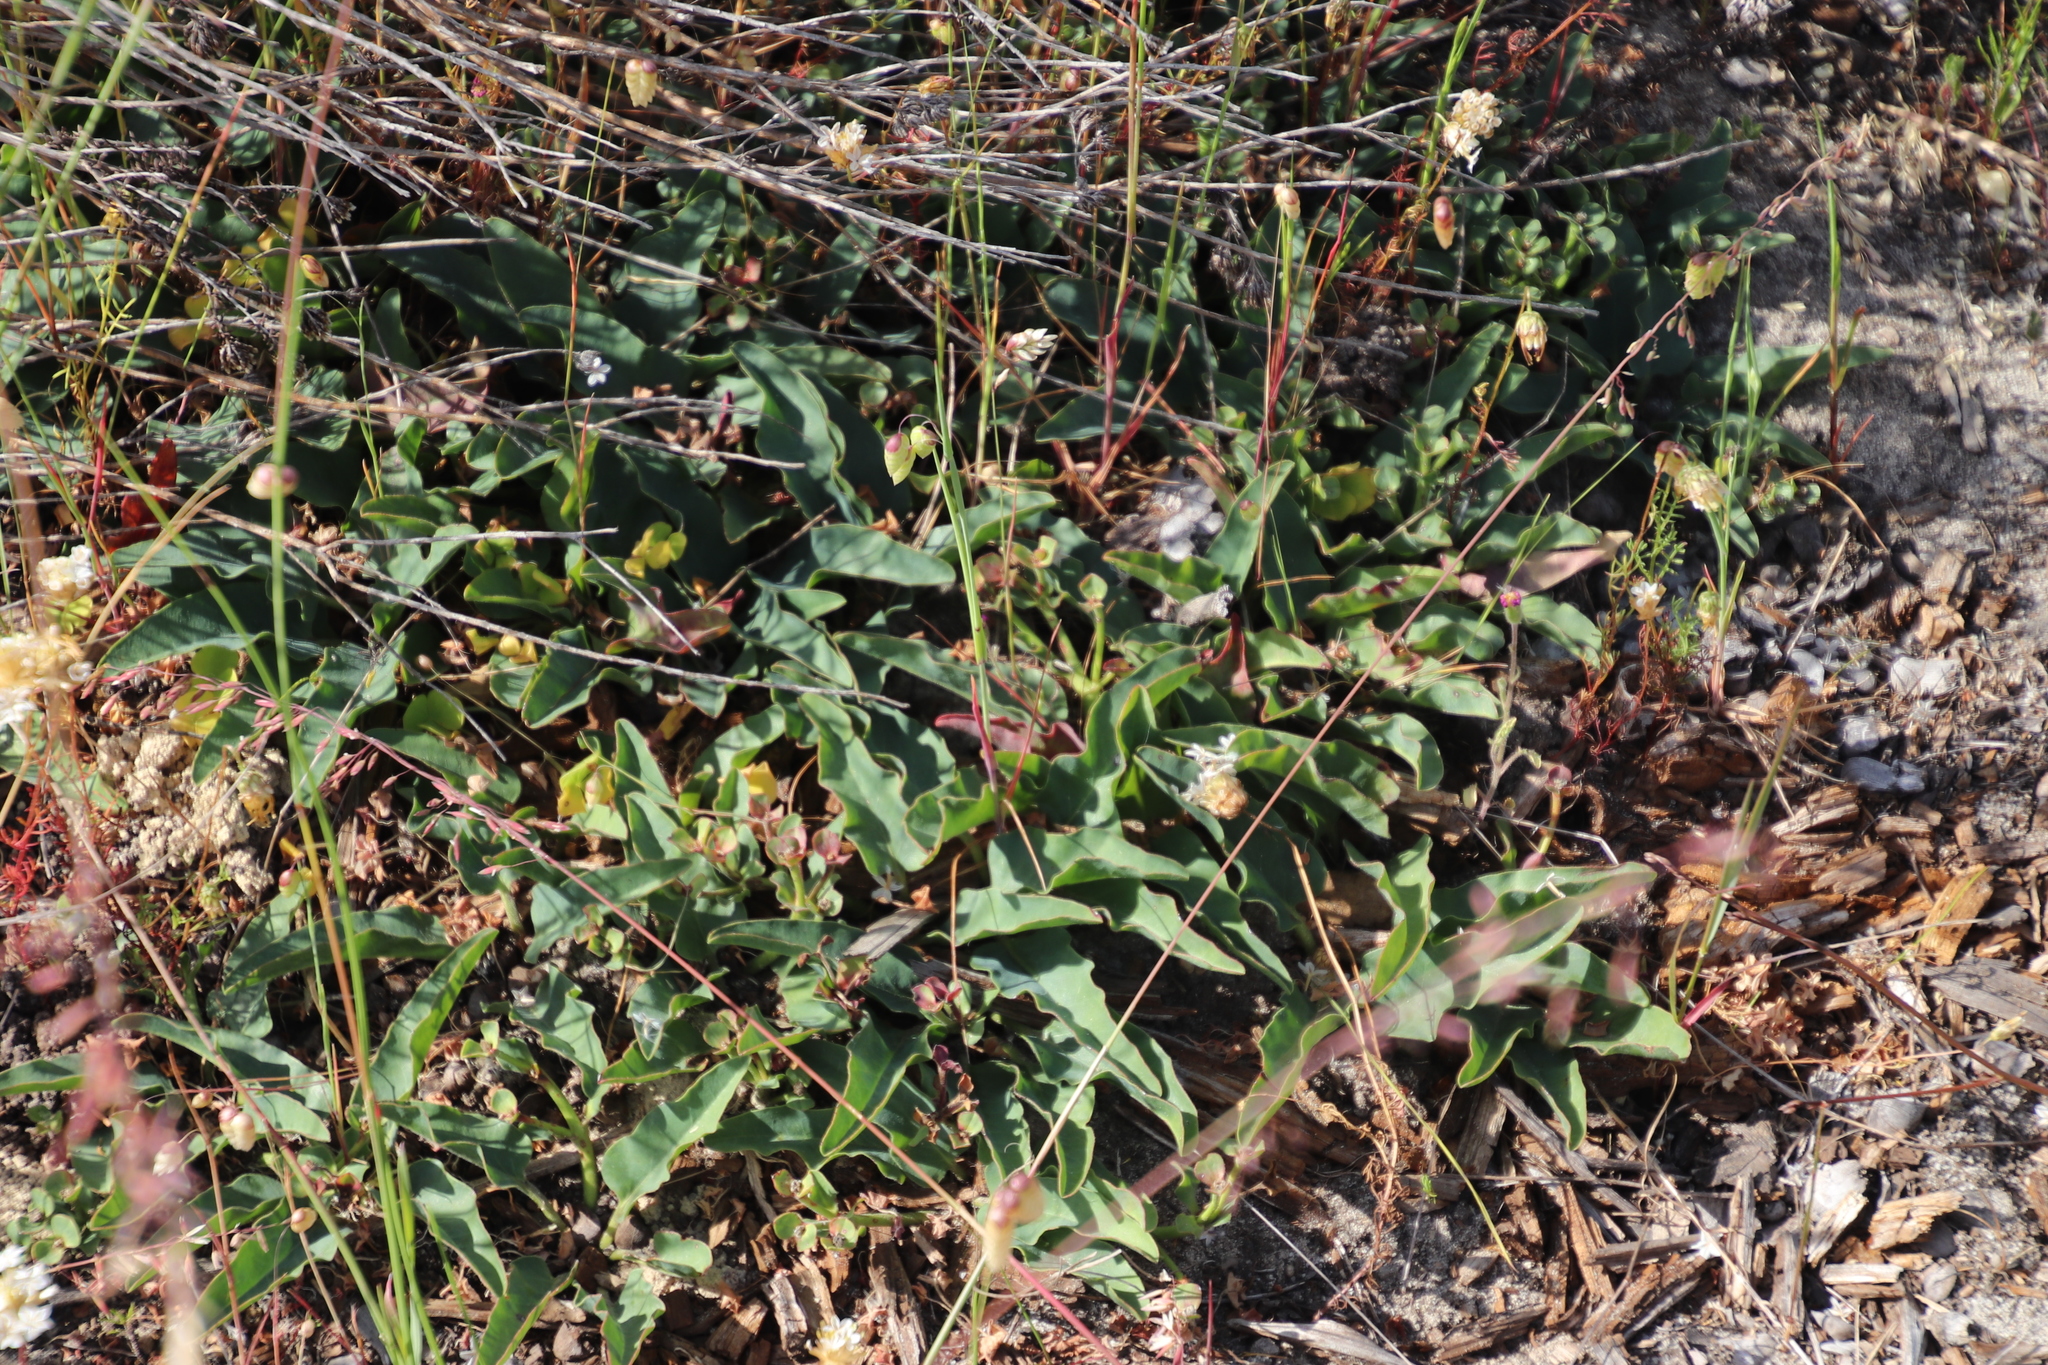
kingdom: Plantae
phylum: Tracheophyta
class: Magnoliopsida
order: Malpighiales
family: Euphorbiaceae
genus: Euphorbia
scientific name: Euphorbia tuberosa
